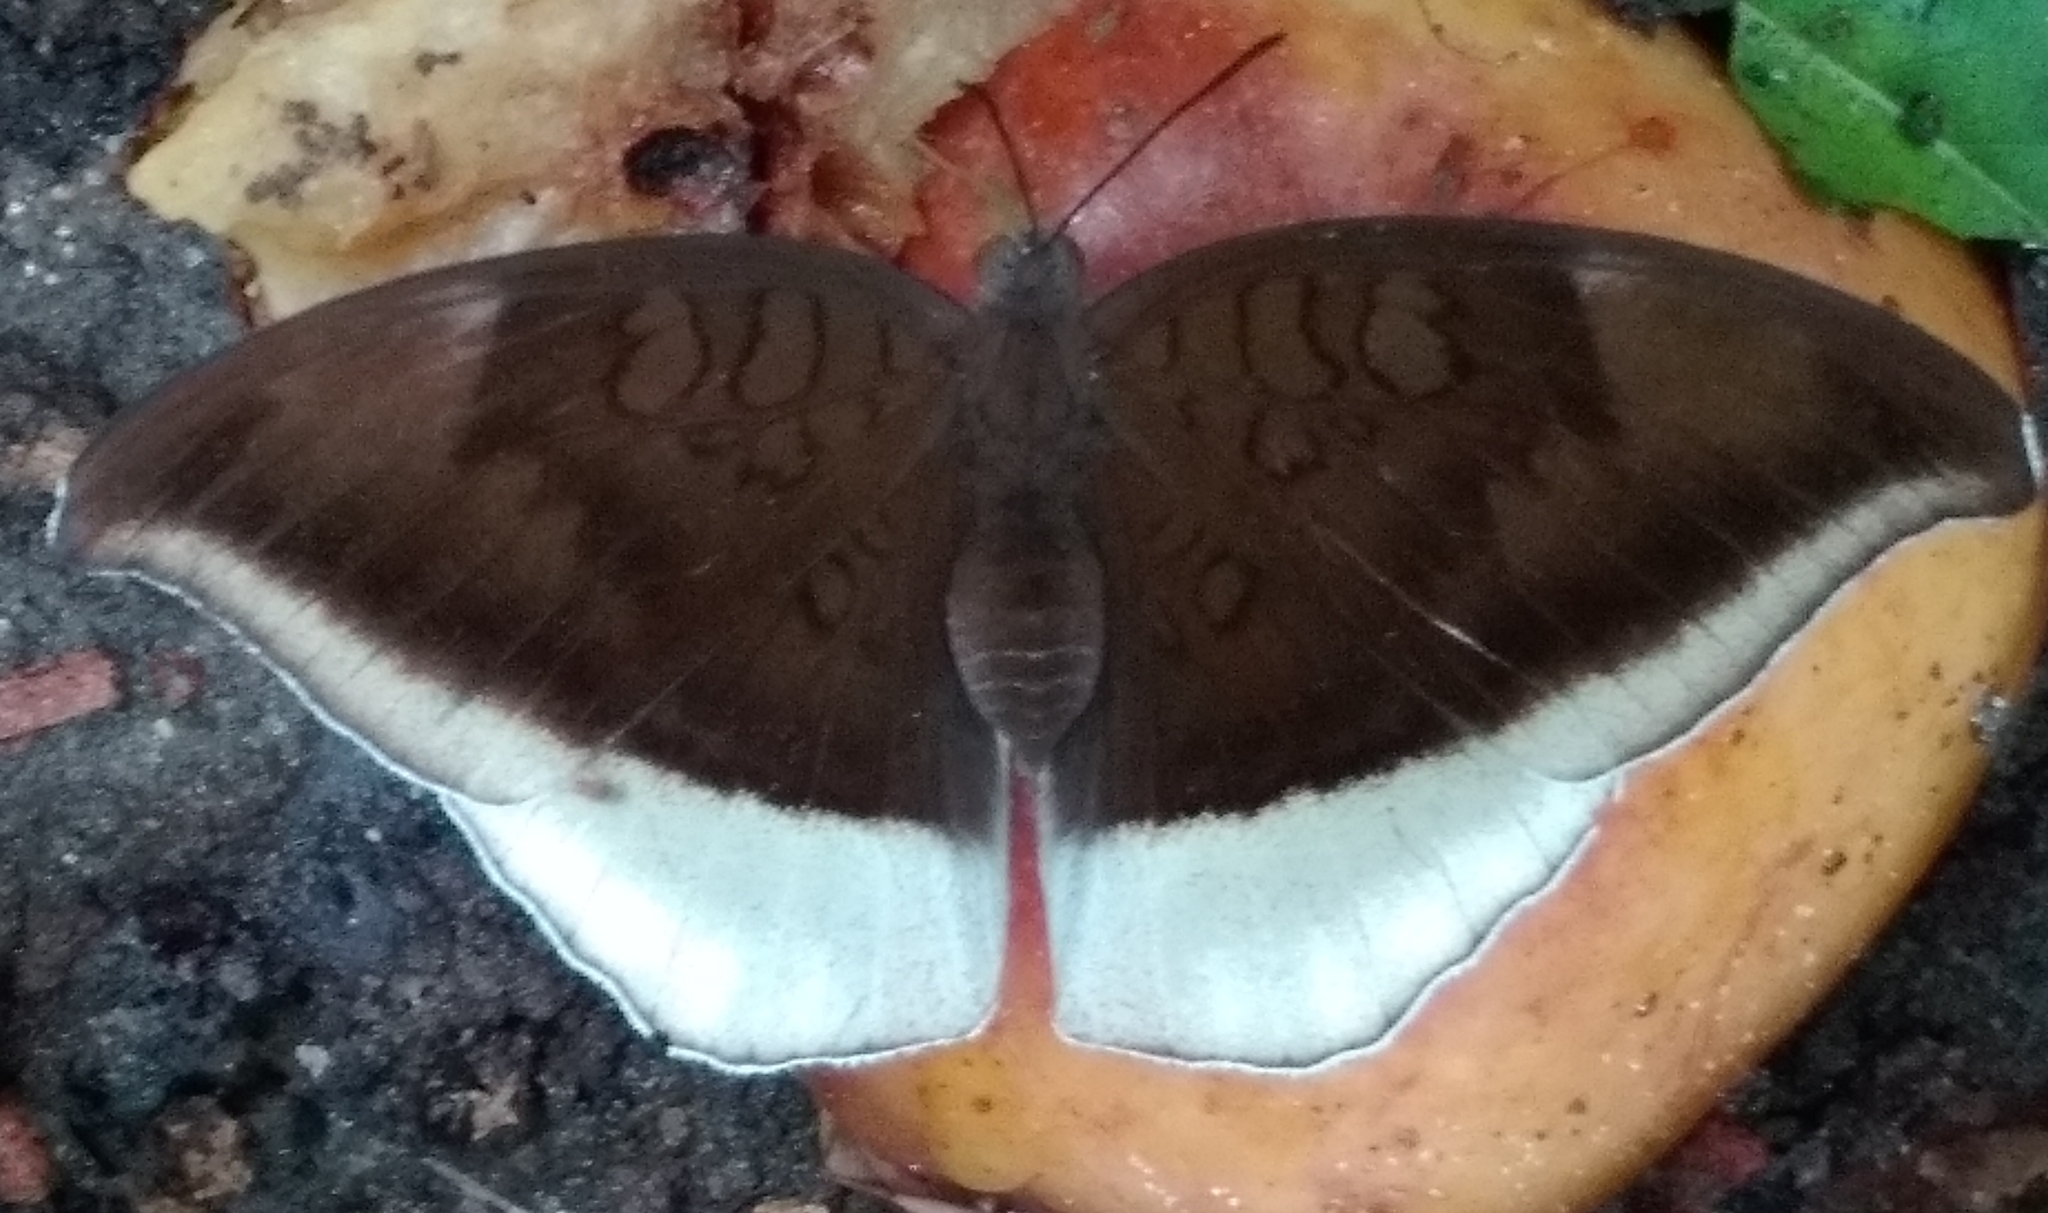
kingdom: Animalia
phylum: Arthropoda
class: Insecta
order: Lepidoptera
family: Nymphalidae
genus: Tanaecia
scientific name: Tanaecia lepidea
